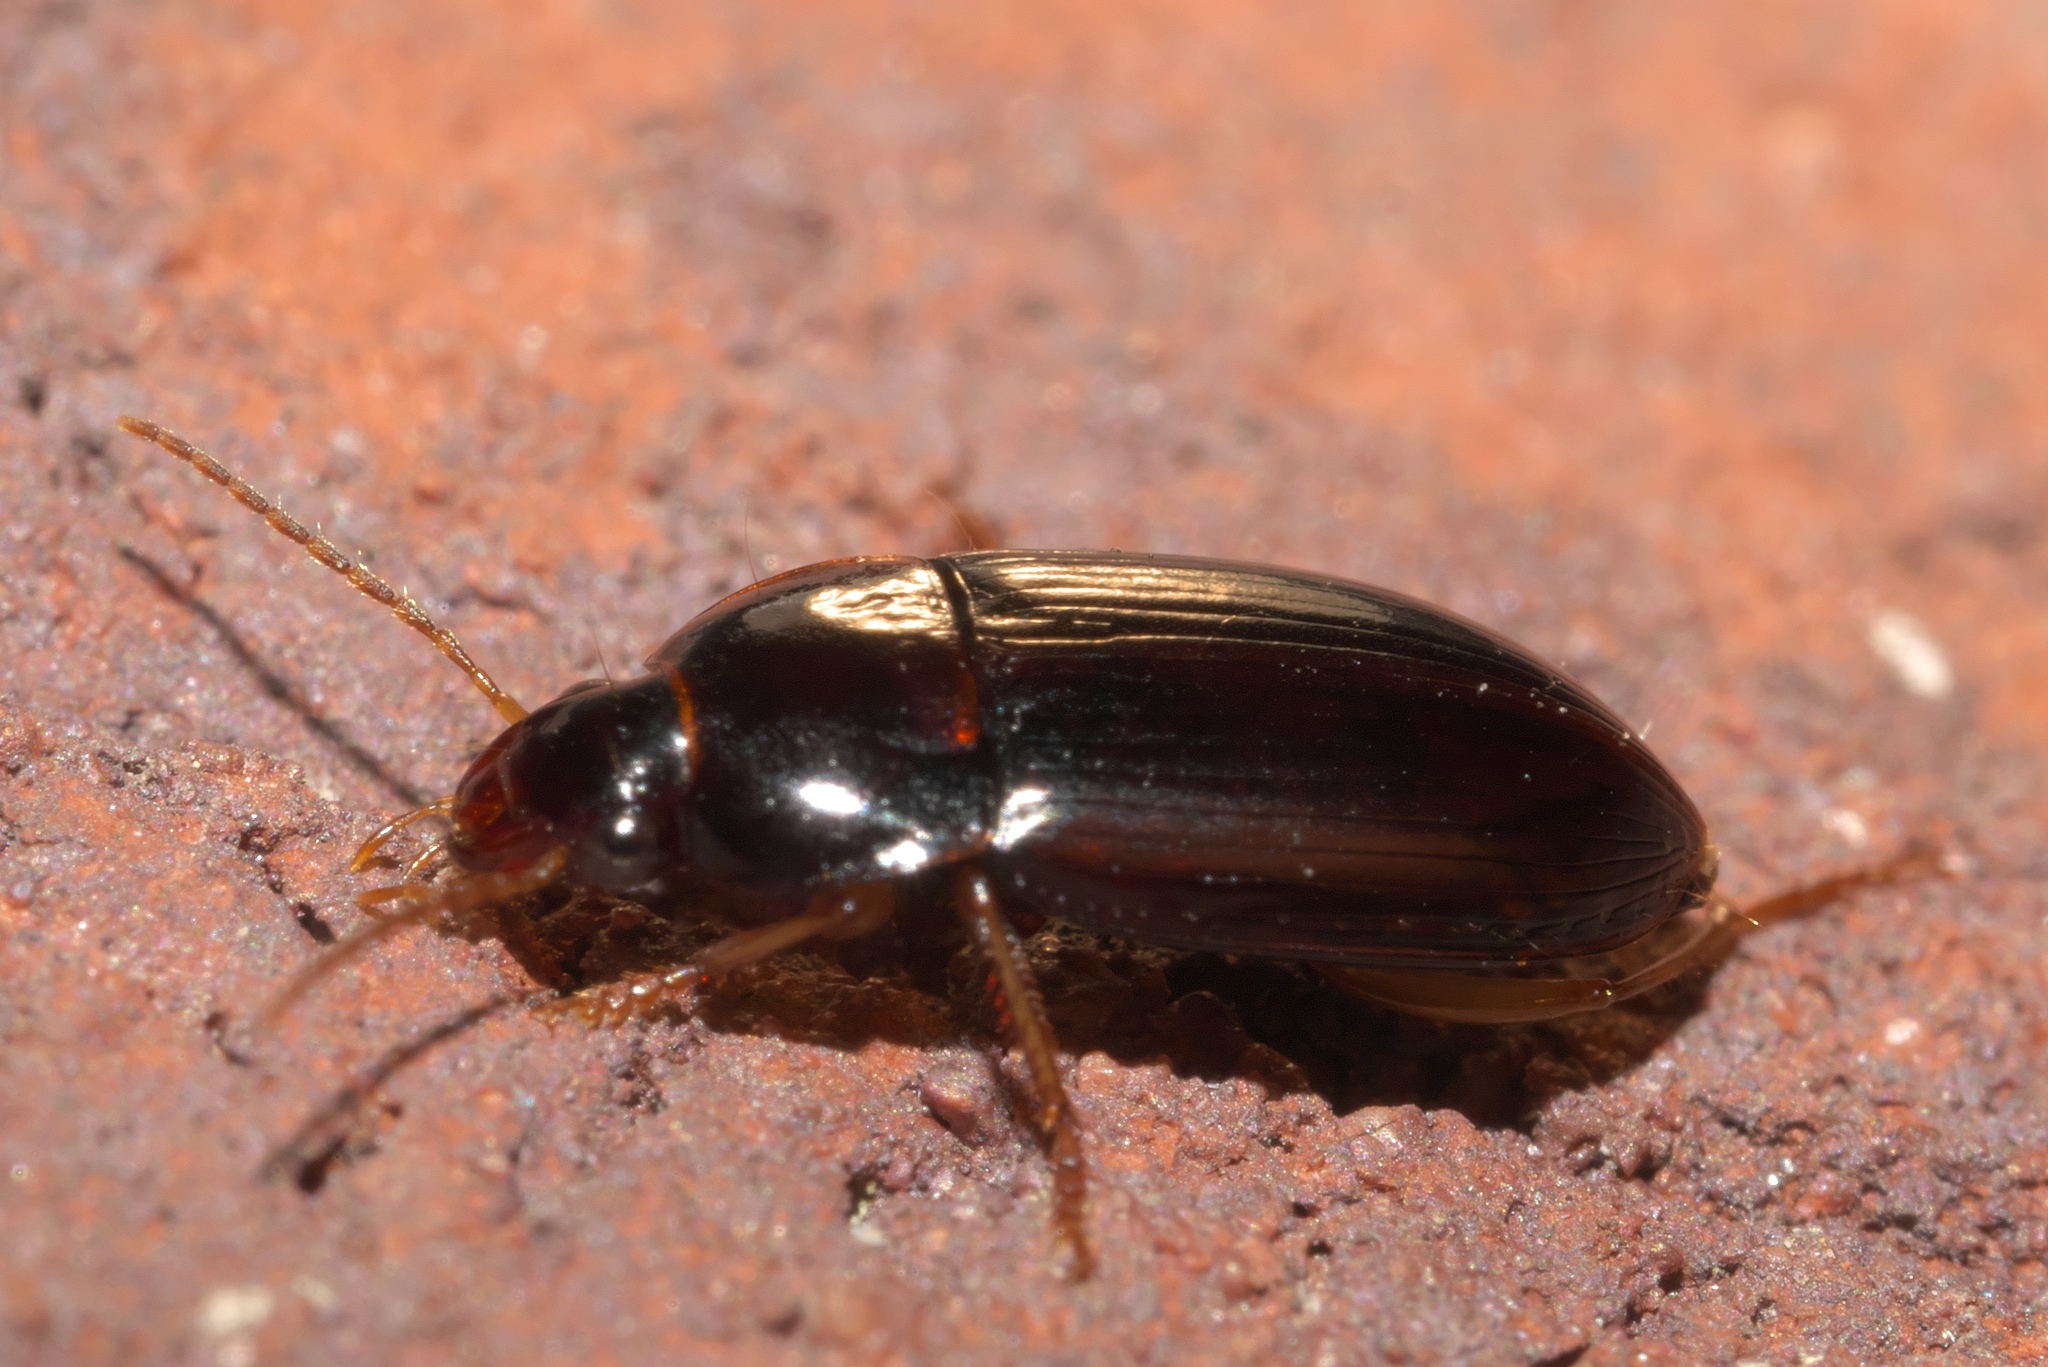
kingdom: Animalia
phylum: Arthropoda
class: Insecta
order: Coleoptera
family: Carabidae
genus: Notiobia
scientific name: Notiobia terminata
